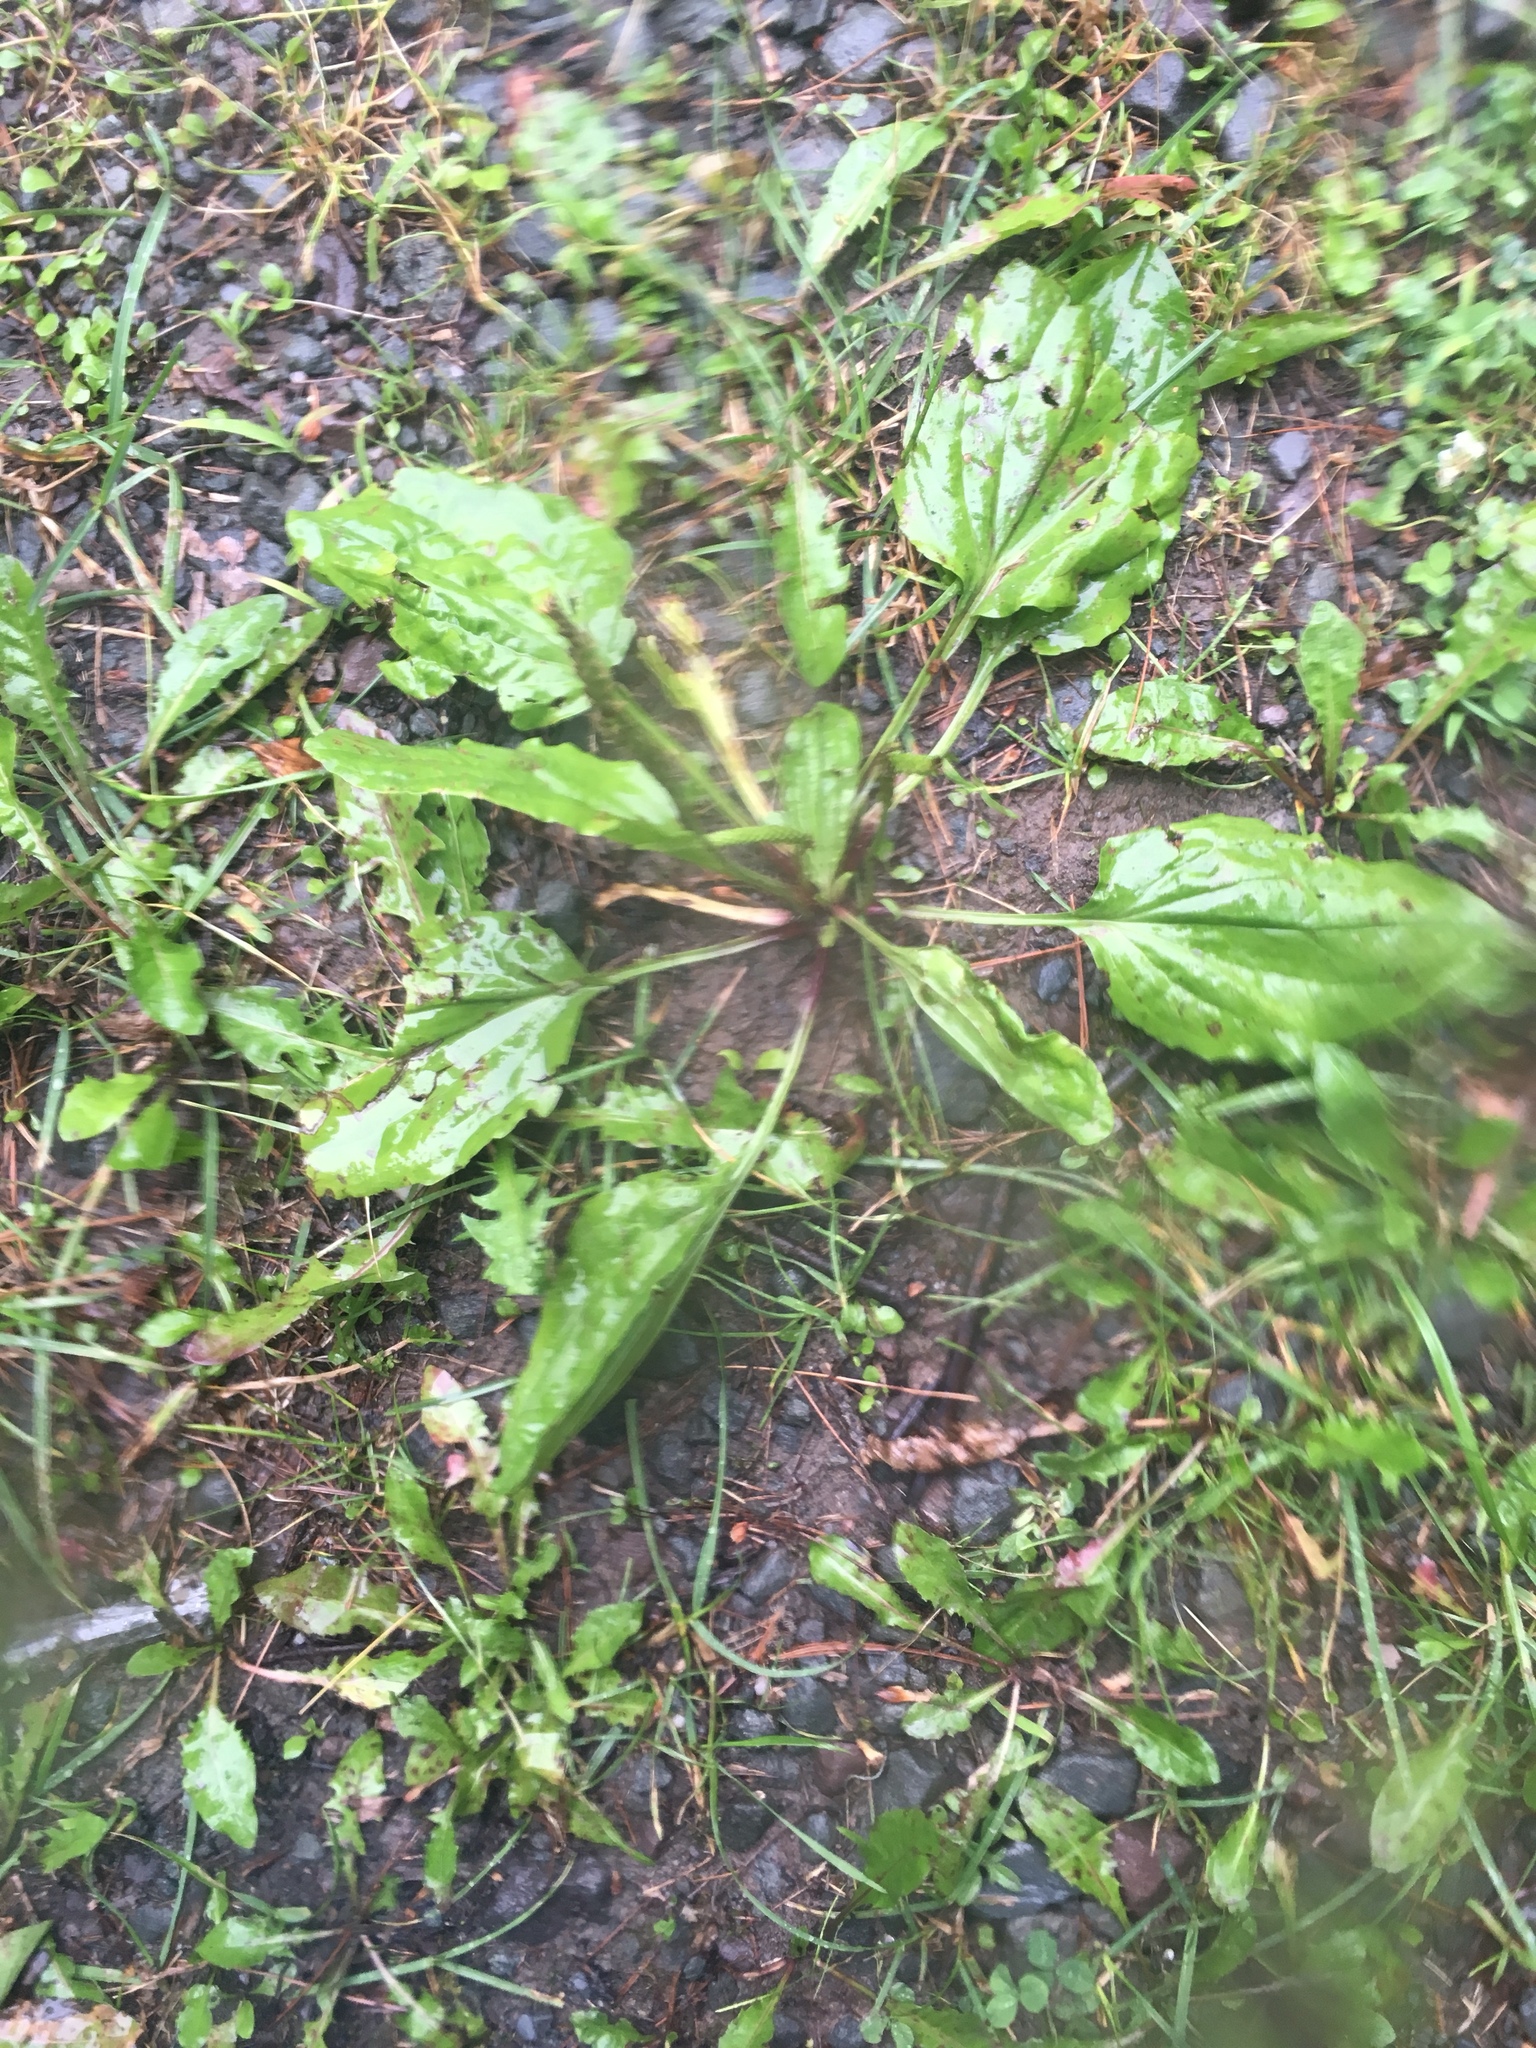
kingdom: Plantae
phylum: Tracheophyta
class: Magnoliopsida
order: Lamiales
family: Plantaginaceae
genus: Plantago
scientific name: Plantago rugelii
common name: American plantain
